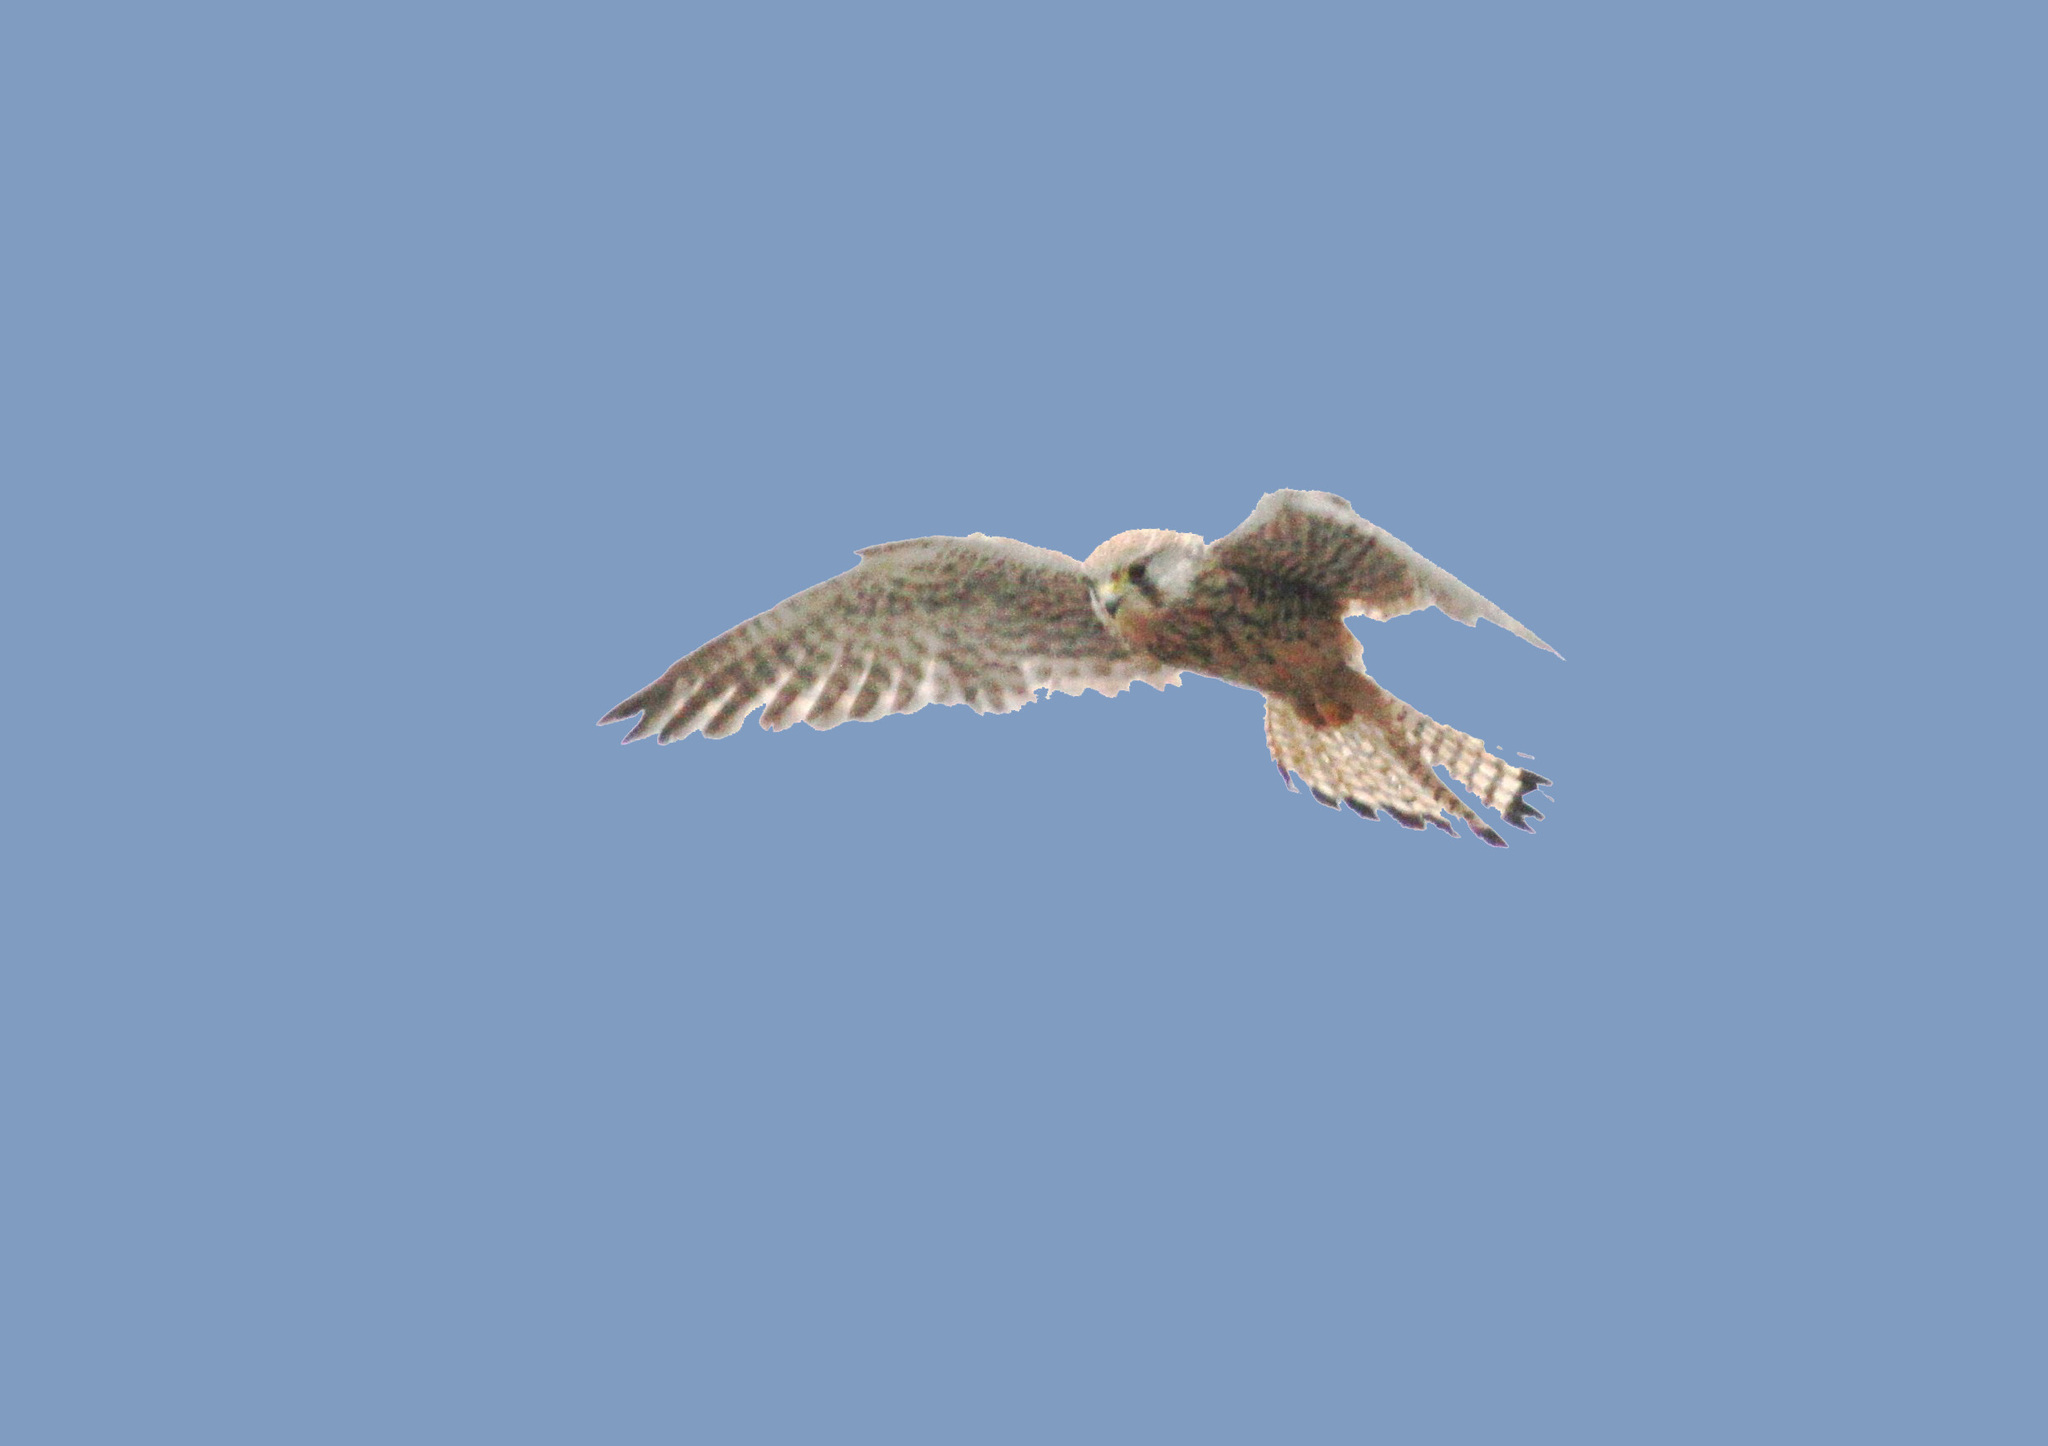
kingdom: Animalia
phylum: Chordata
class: Aves
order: Falconiformes
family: Falconidae
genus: Falco
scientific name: Falco tinnunculus
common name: Common kestrel
